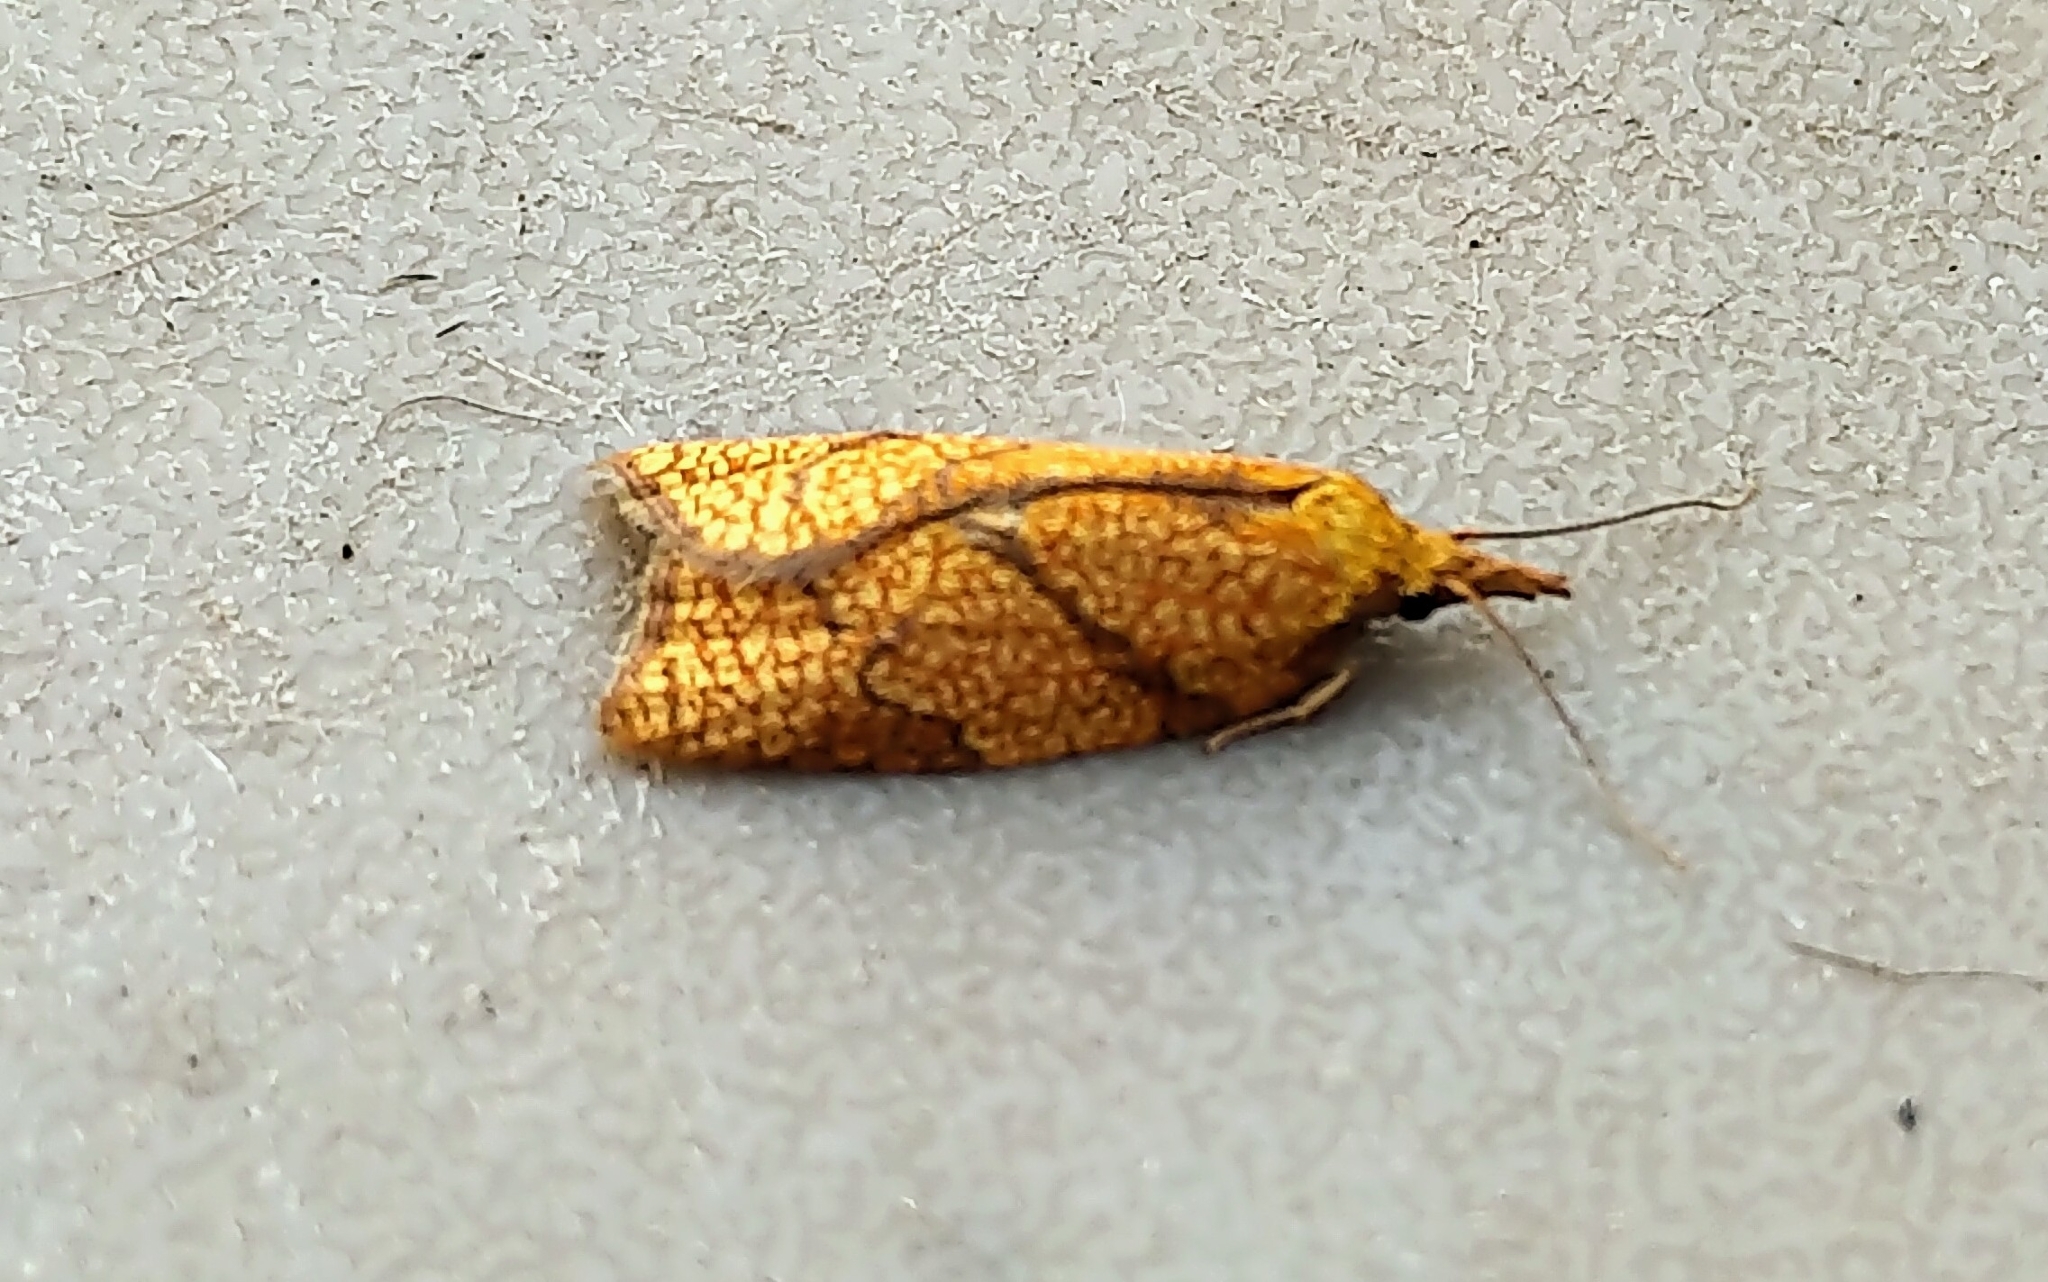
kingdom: Animalia
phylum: Arthropoda
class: Insecta
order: Lepidoptera
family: Tortricidae
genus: Sparganothis
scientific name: Sparganothis sulfureana
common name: Sparganothis fruitworm moth
